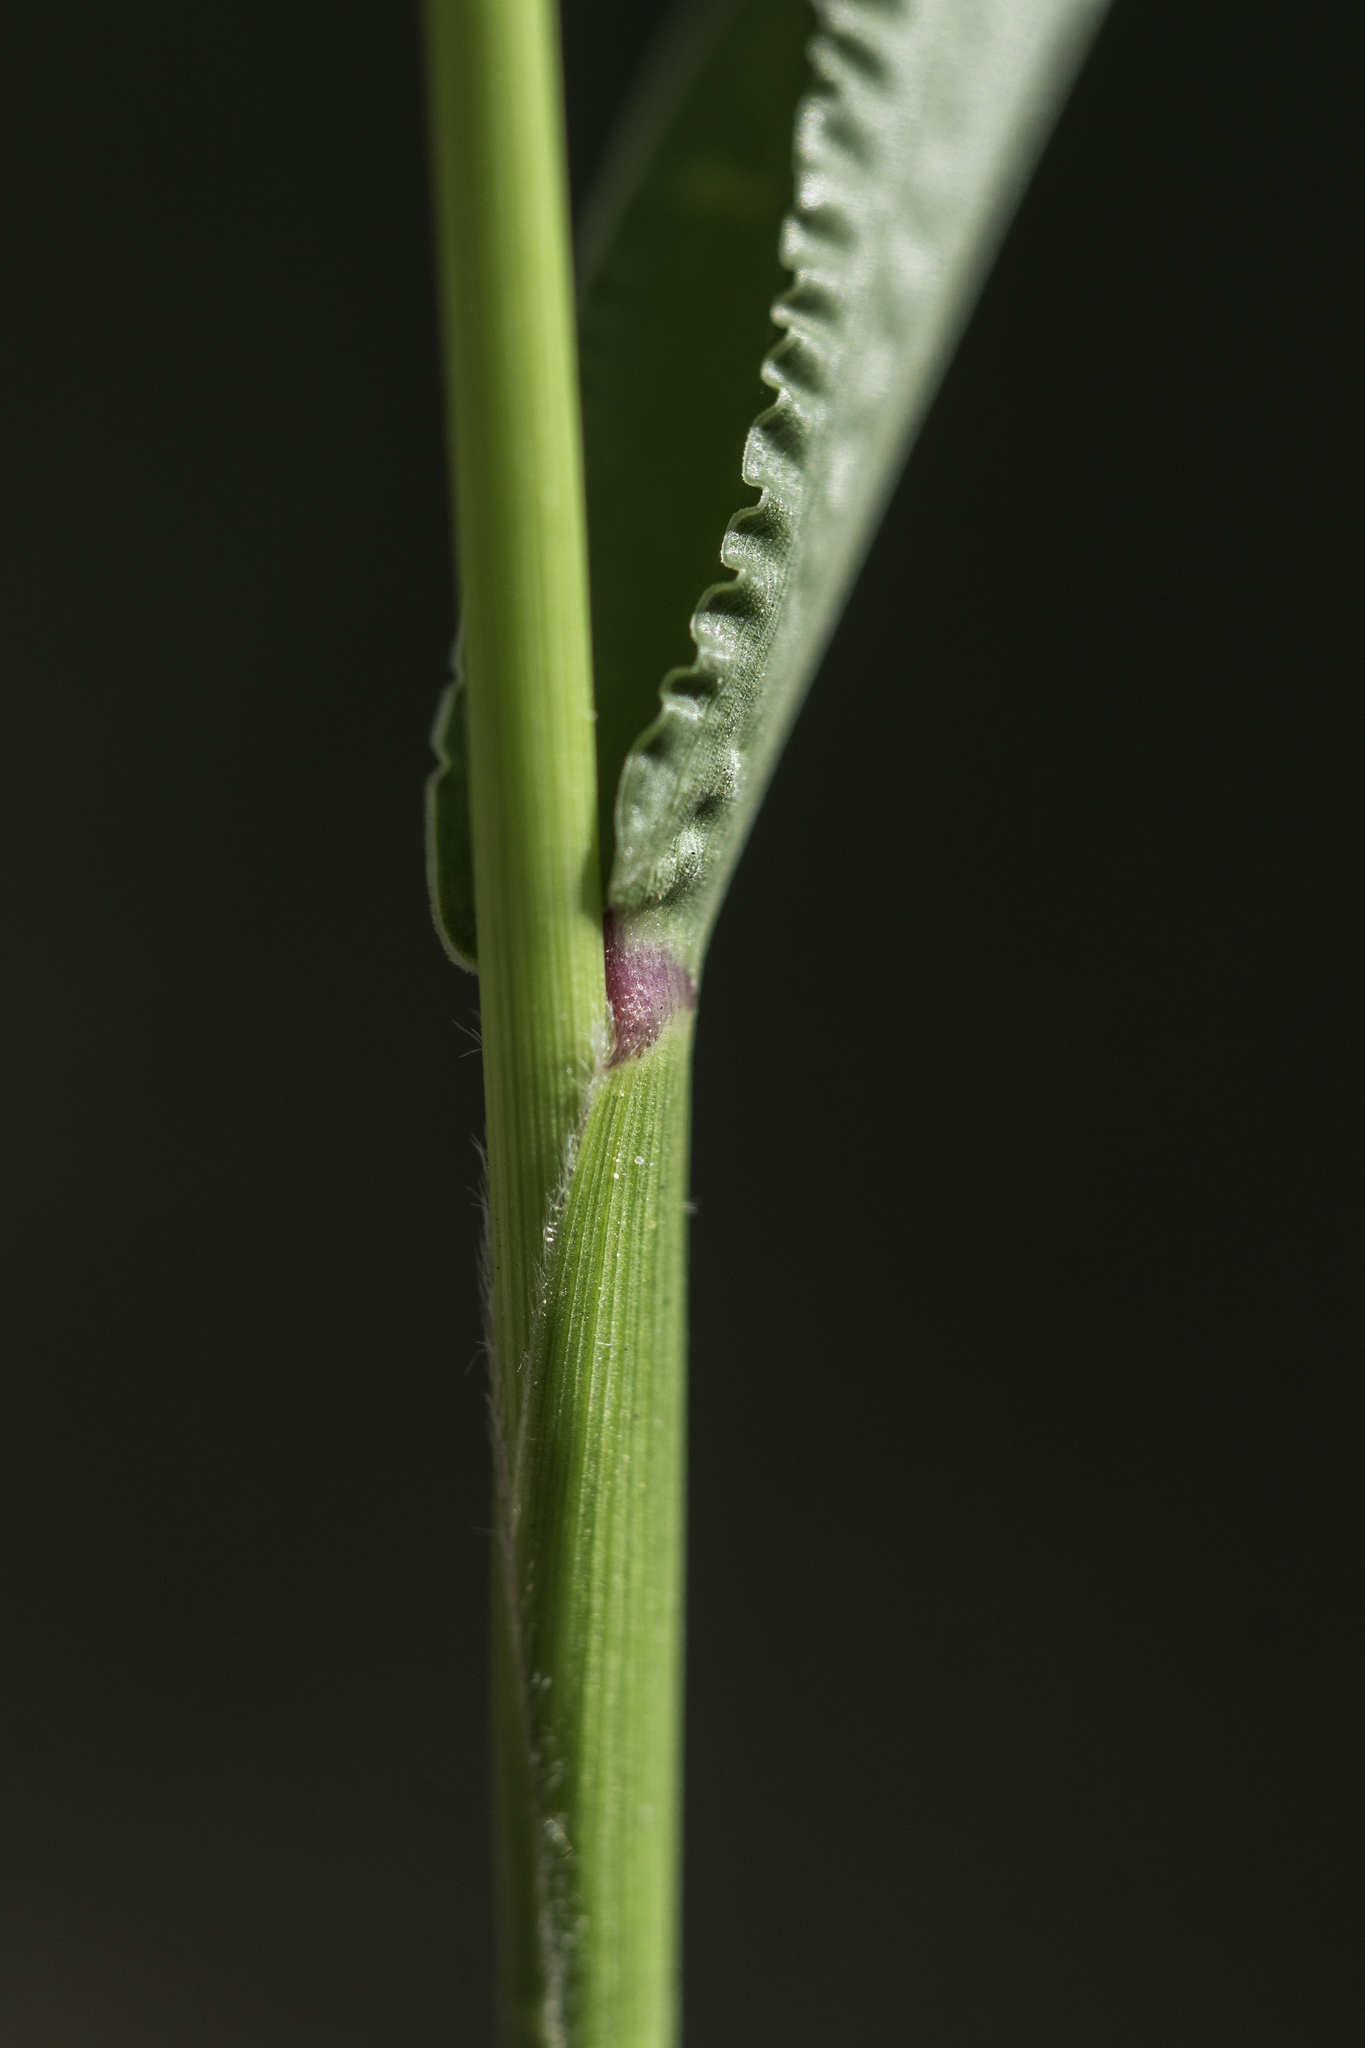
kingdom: Plantae
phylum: Tracheophyta
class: Liliopsida
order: Poales
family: Poaceae
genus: Setaria
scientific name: Setaria viridis
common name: Green bristlegrass
